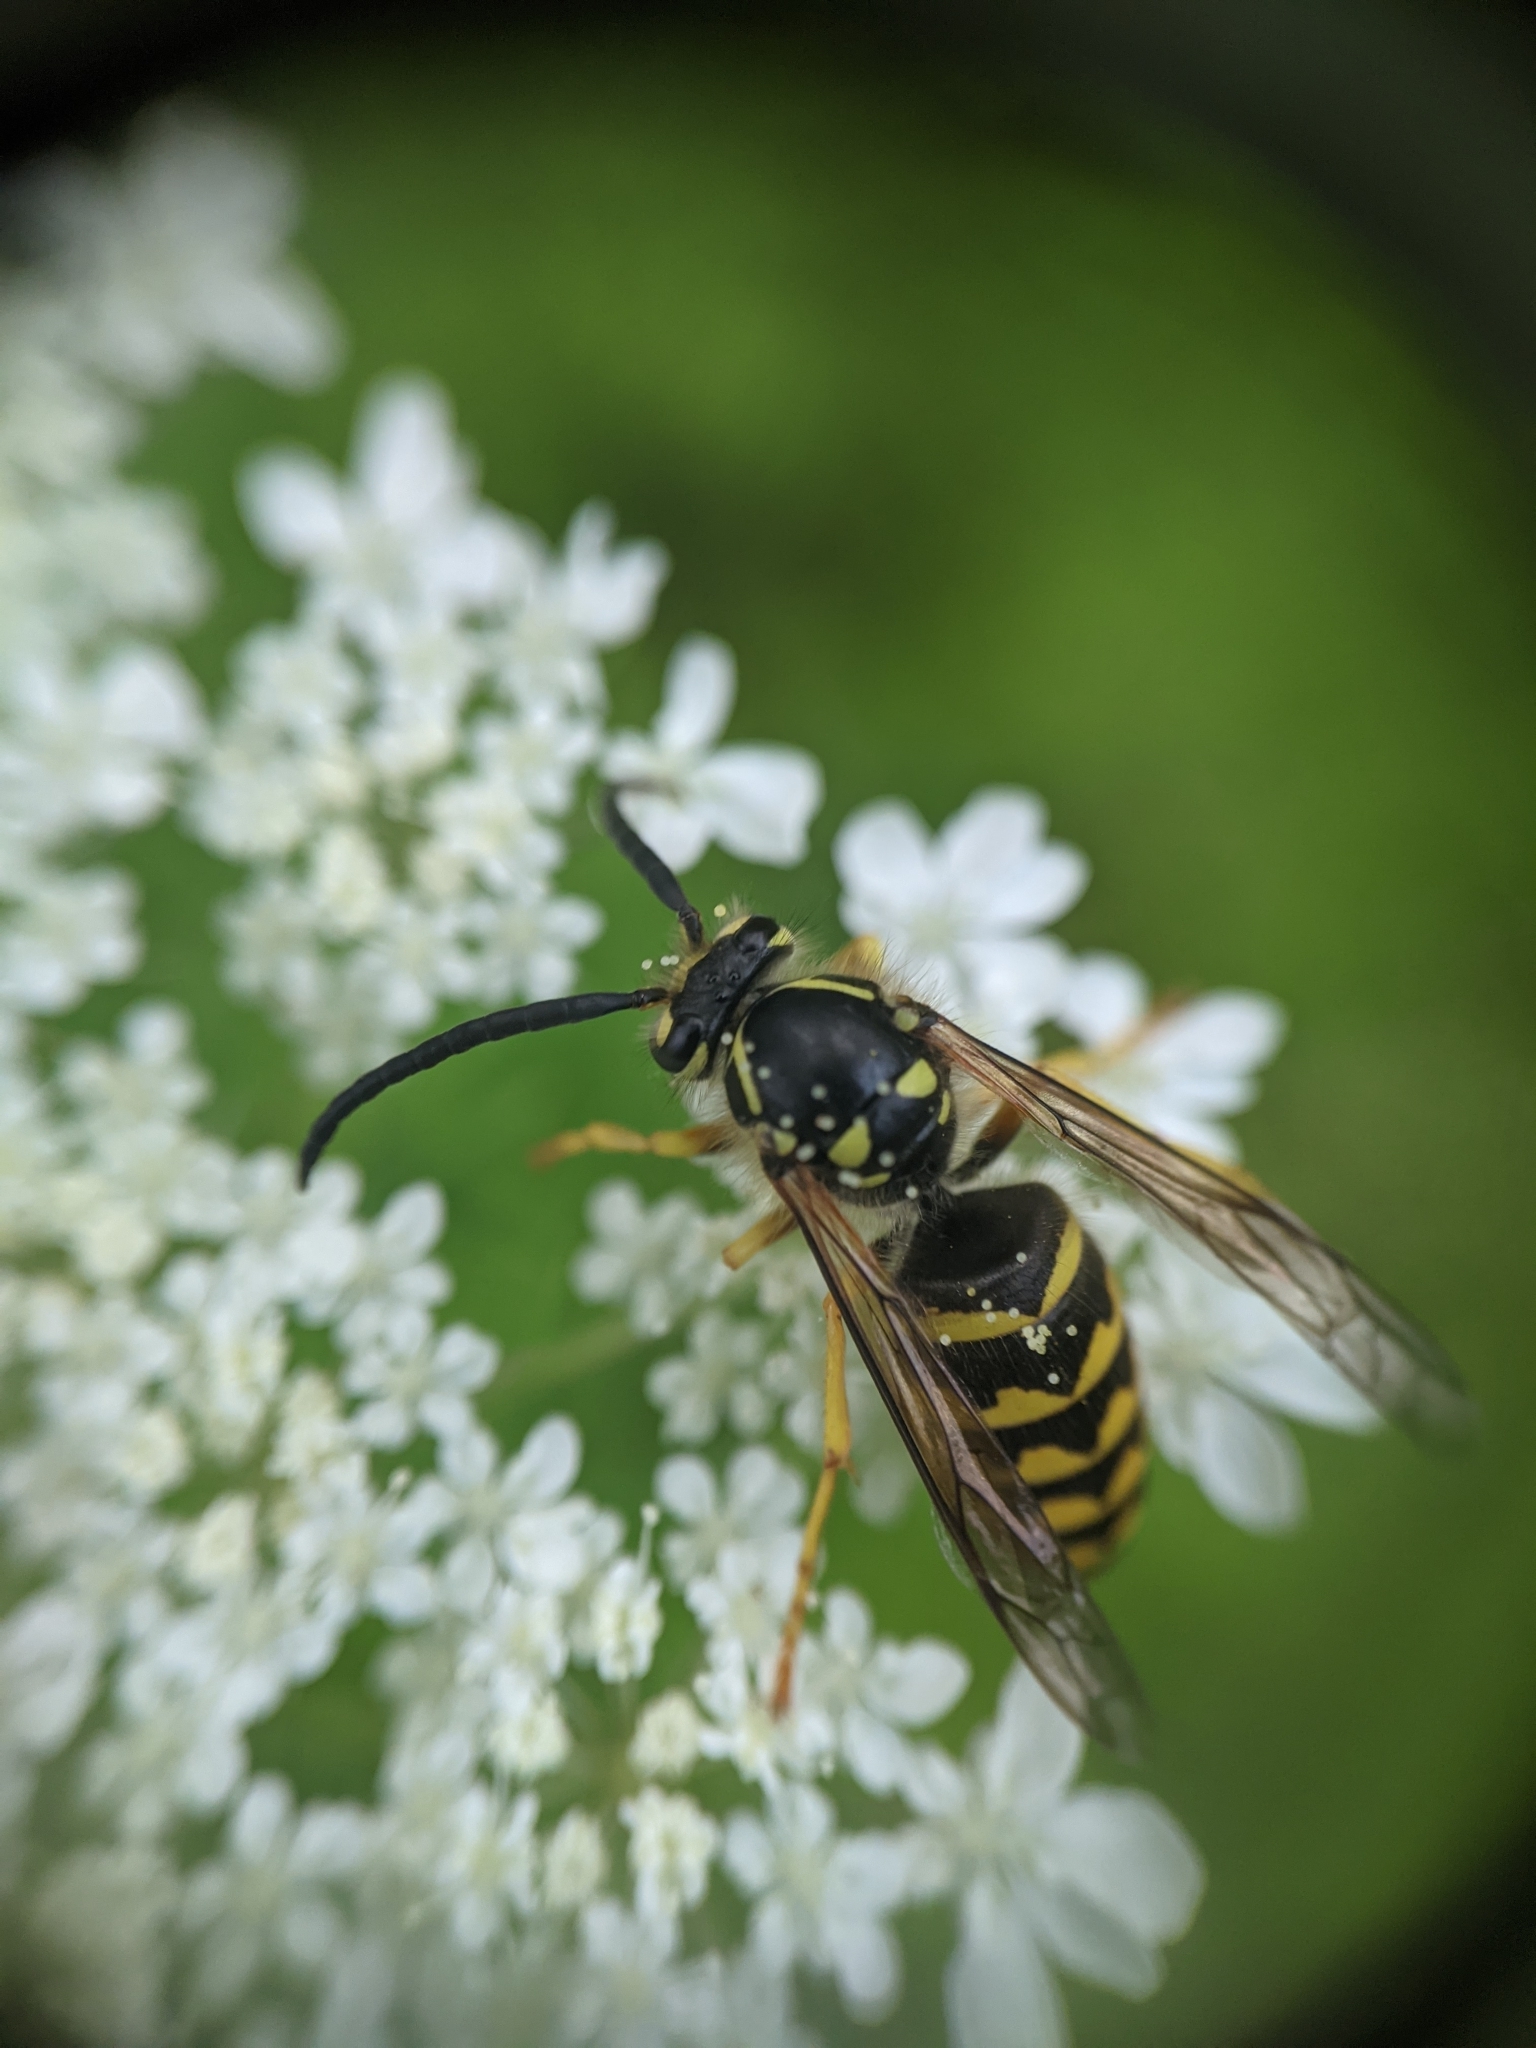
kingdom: Animalia
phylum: Arthropoda
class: Insecta
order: Hymenoptera
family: Vespidae
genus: Dolichovespula
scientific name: Dolichovespula arenaria
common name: Aerial yellowjacket
